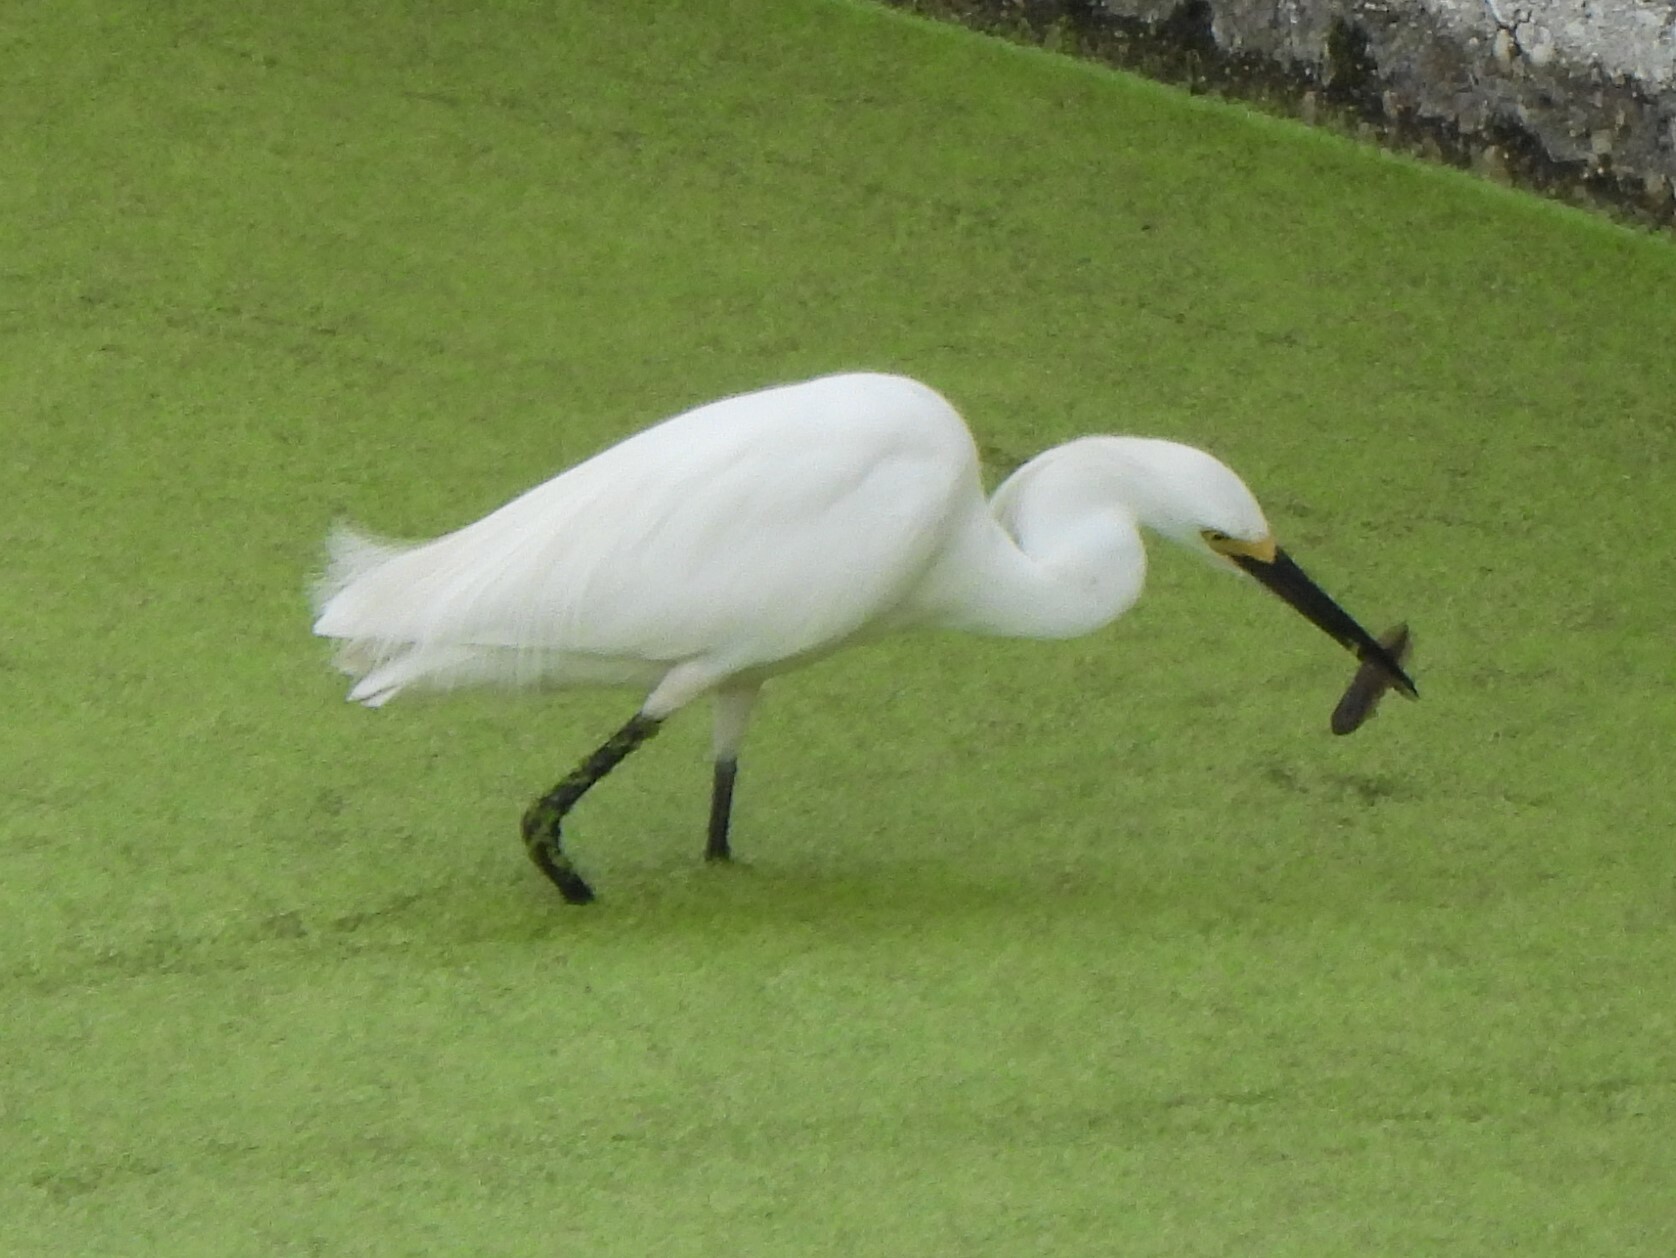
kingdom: Animalia
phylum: Chordata
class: Aves
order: Pelecaniformes
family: Ardeidae
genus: Egretta
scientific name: Egretta thula
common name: Snowy egret
